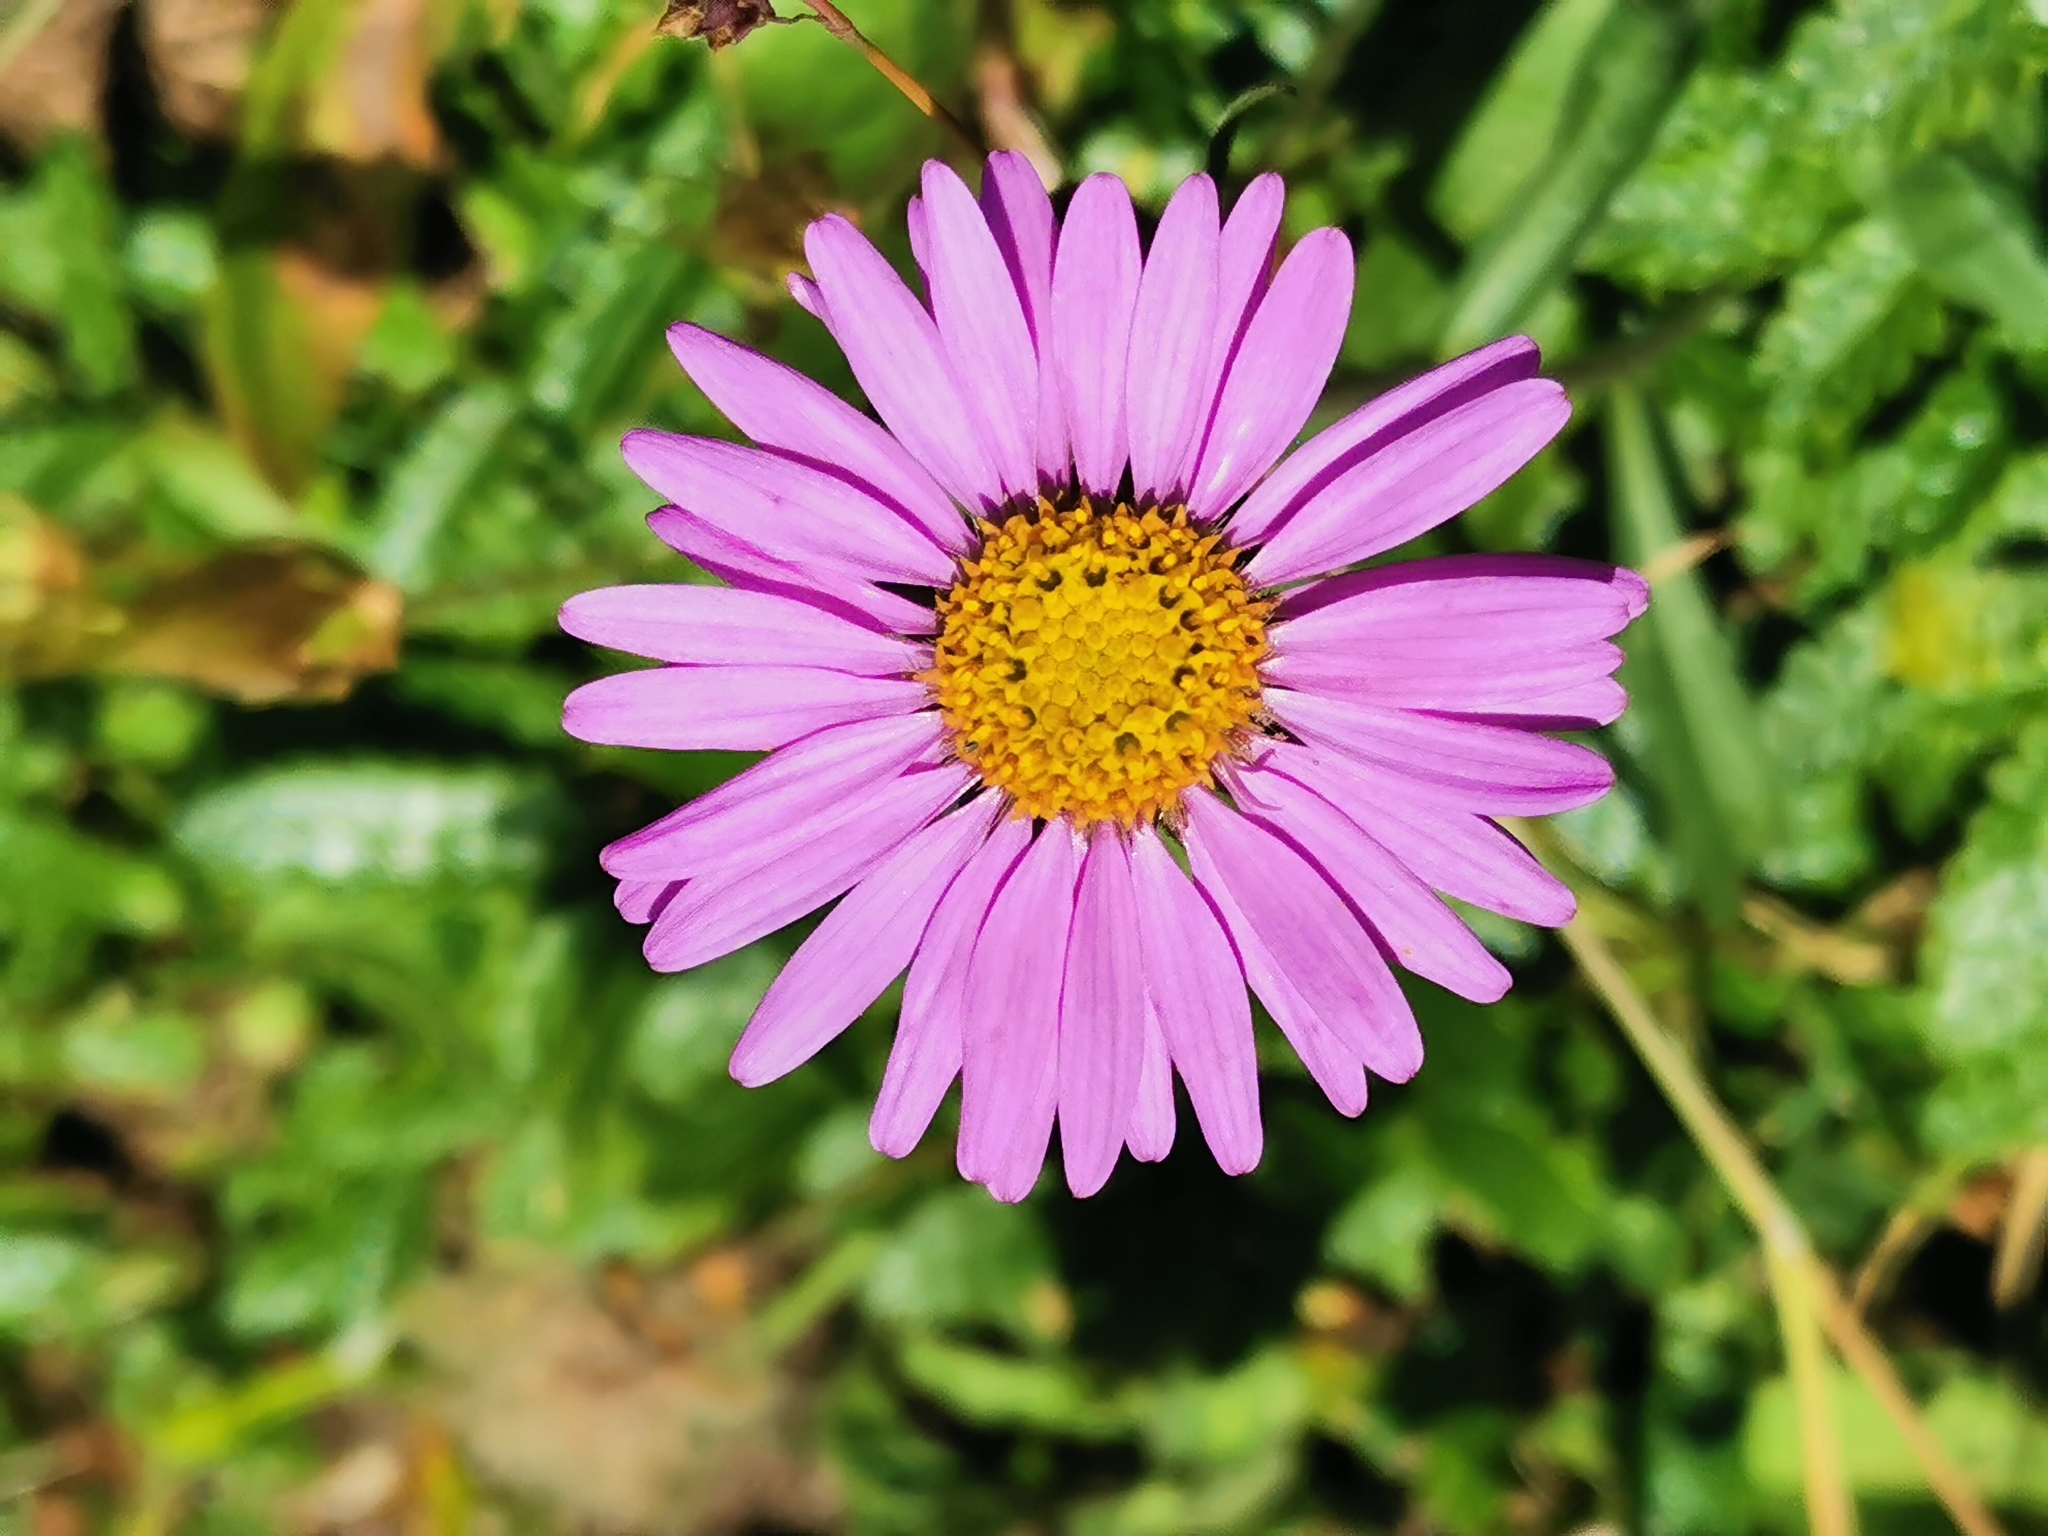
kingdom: Plantae
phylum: Tracheophyta
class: Magnoliopsida
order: Asterales
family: Asteraceae
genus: Aster
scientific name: Aster alpinus
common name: Alpine aster
